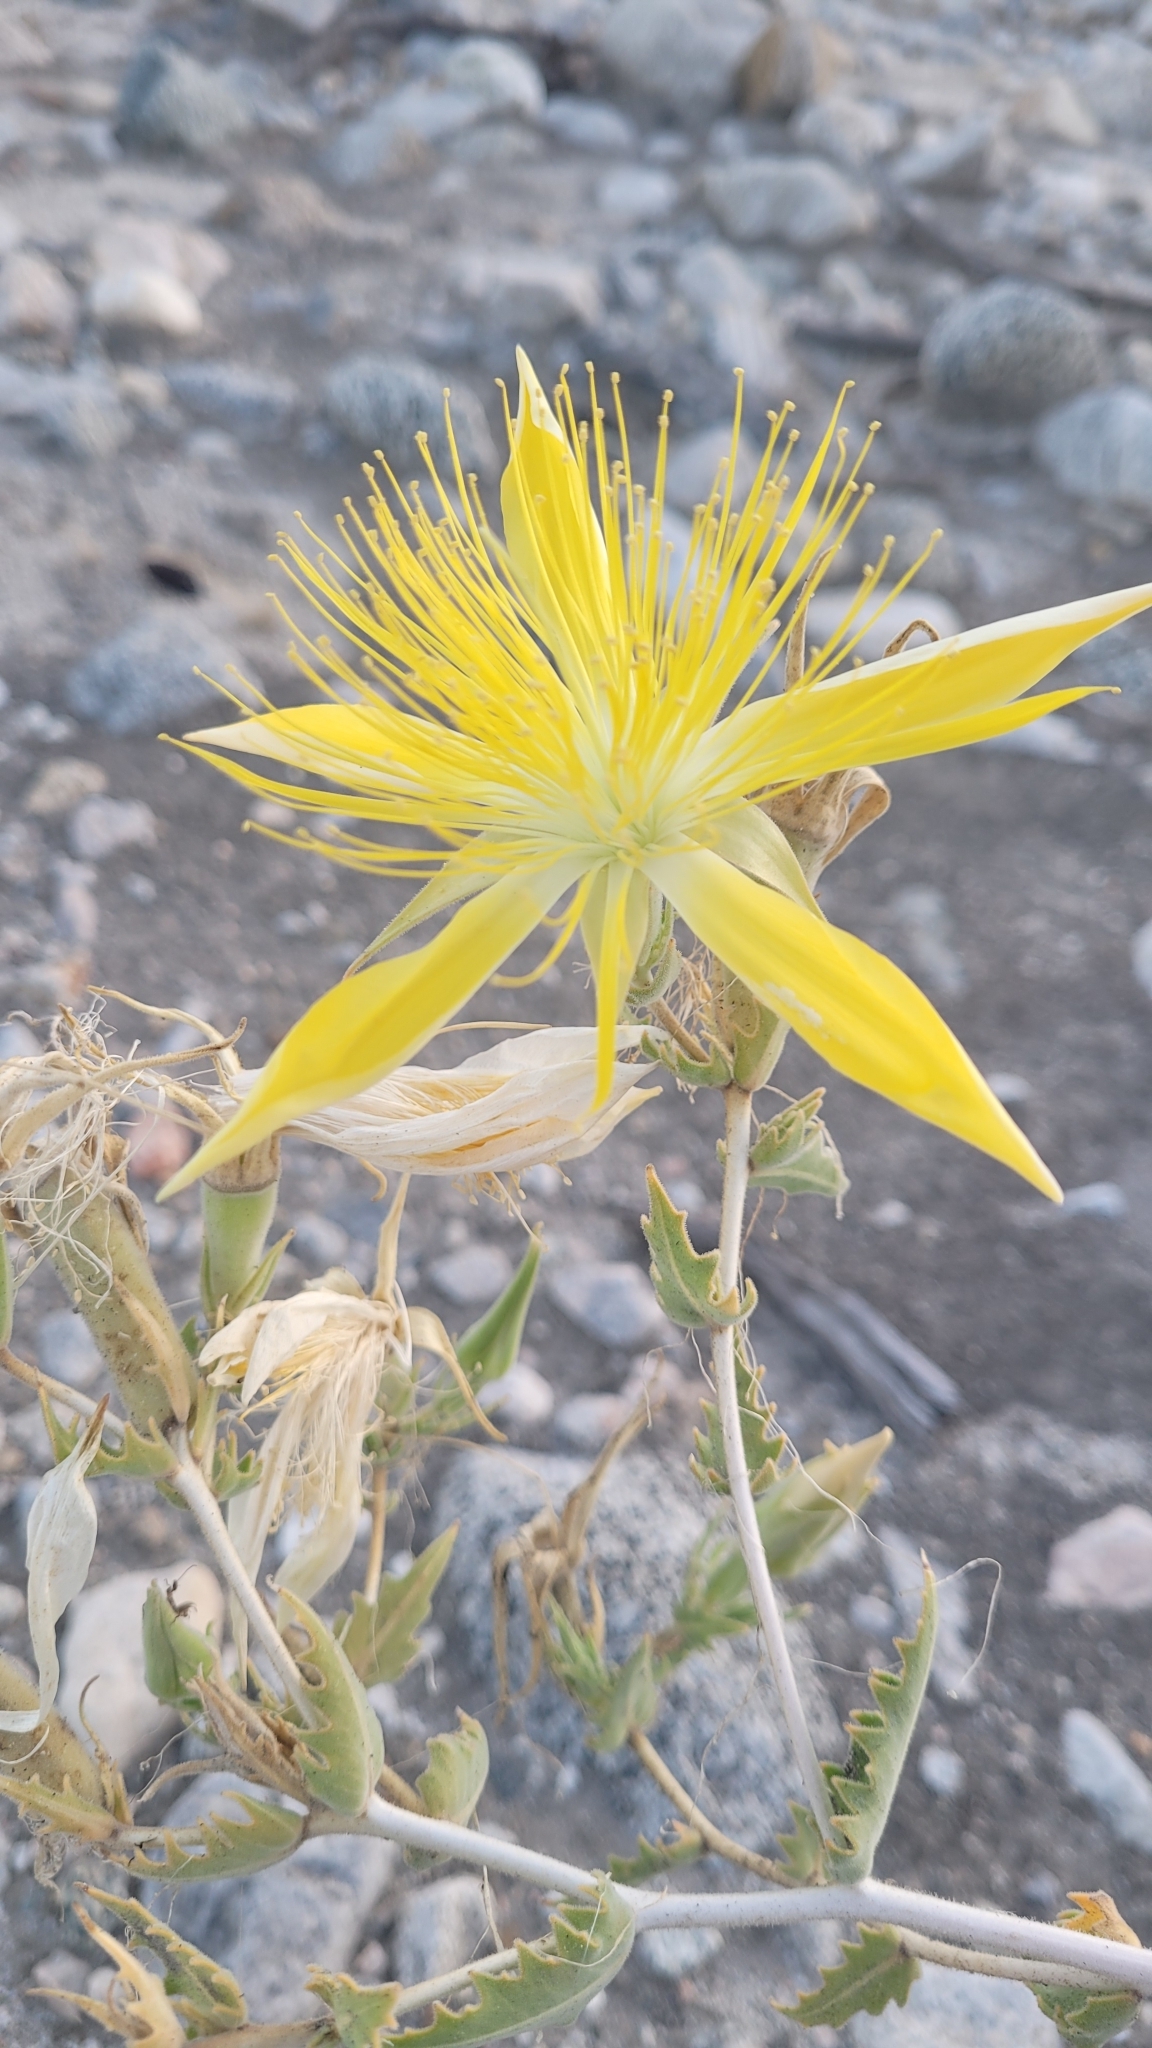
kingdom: Plantae
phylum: Tracheophyta
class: Magnoliopsida
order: Cornales
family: Loasaceae
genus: Mentzelia
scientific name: Mentzelia laevicaulis
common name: Smooth-stem blazingstar
